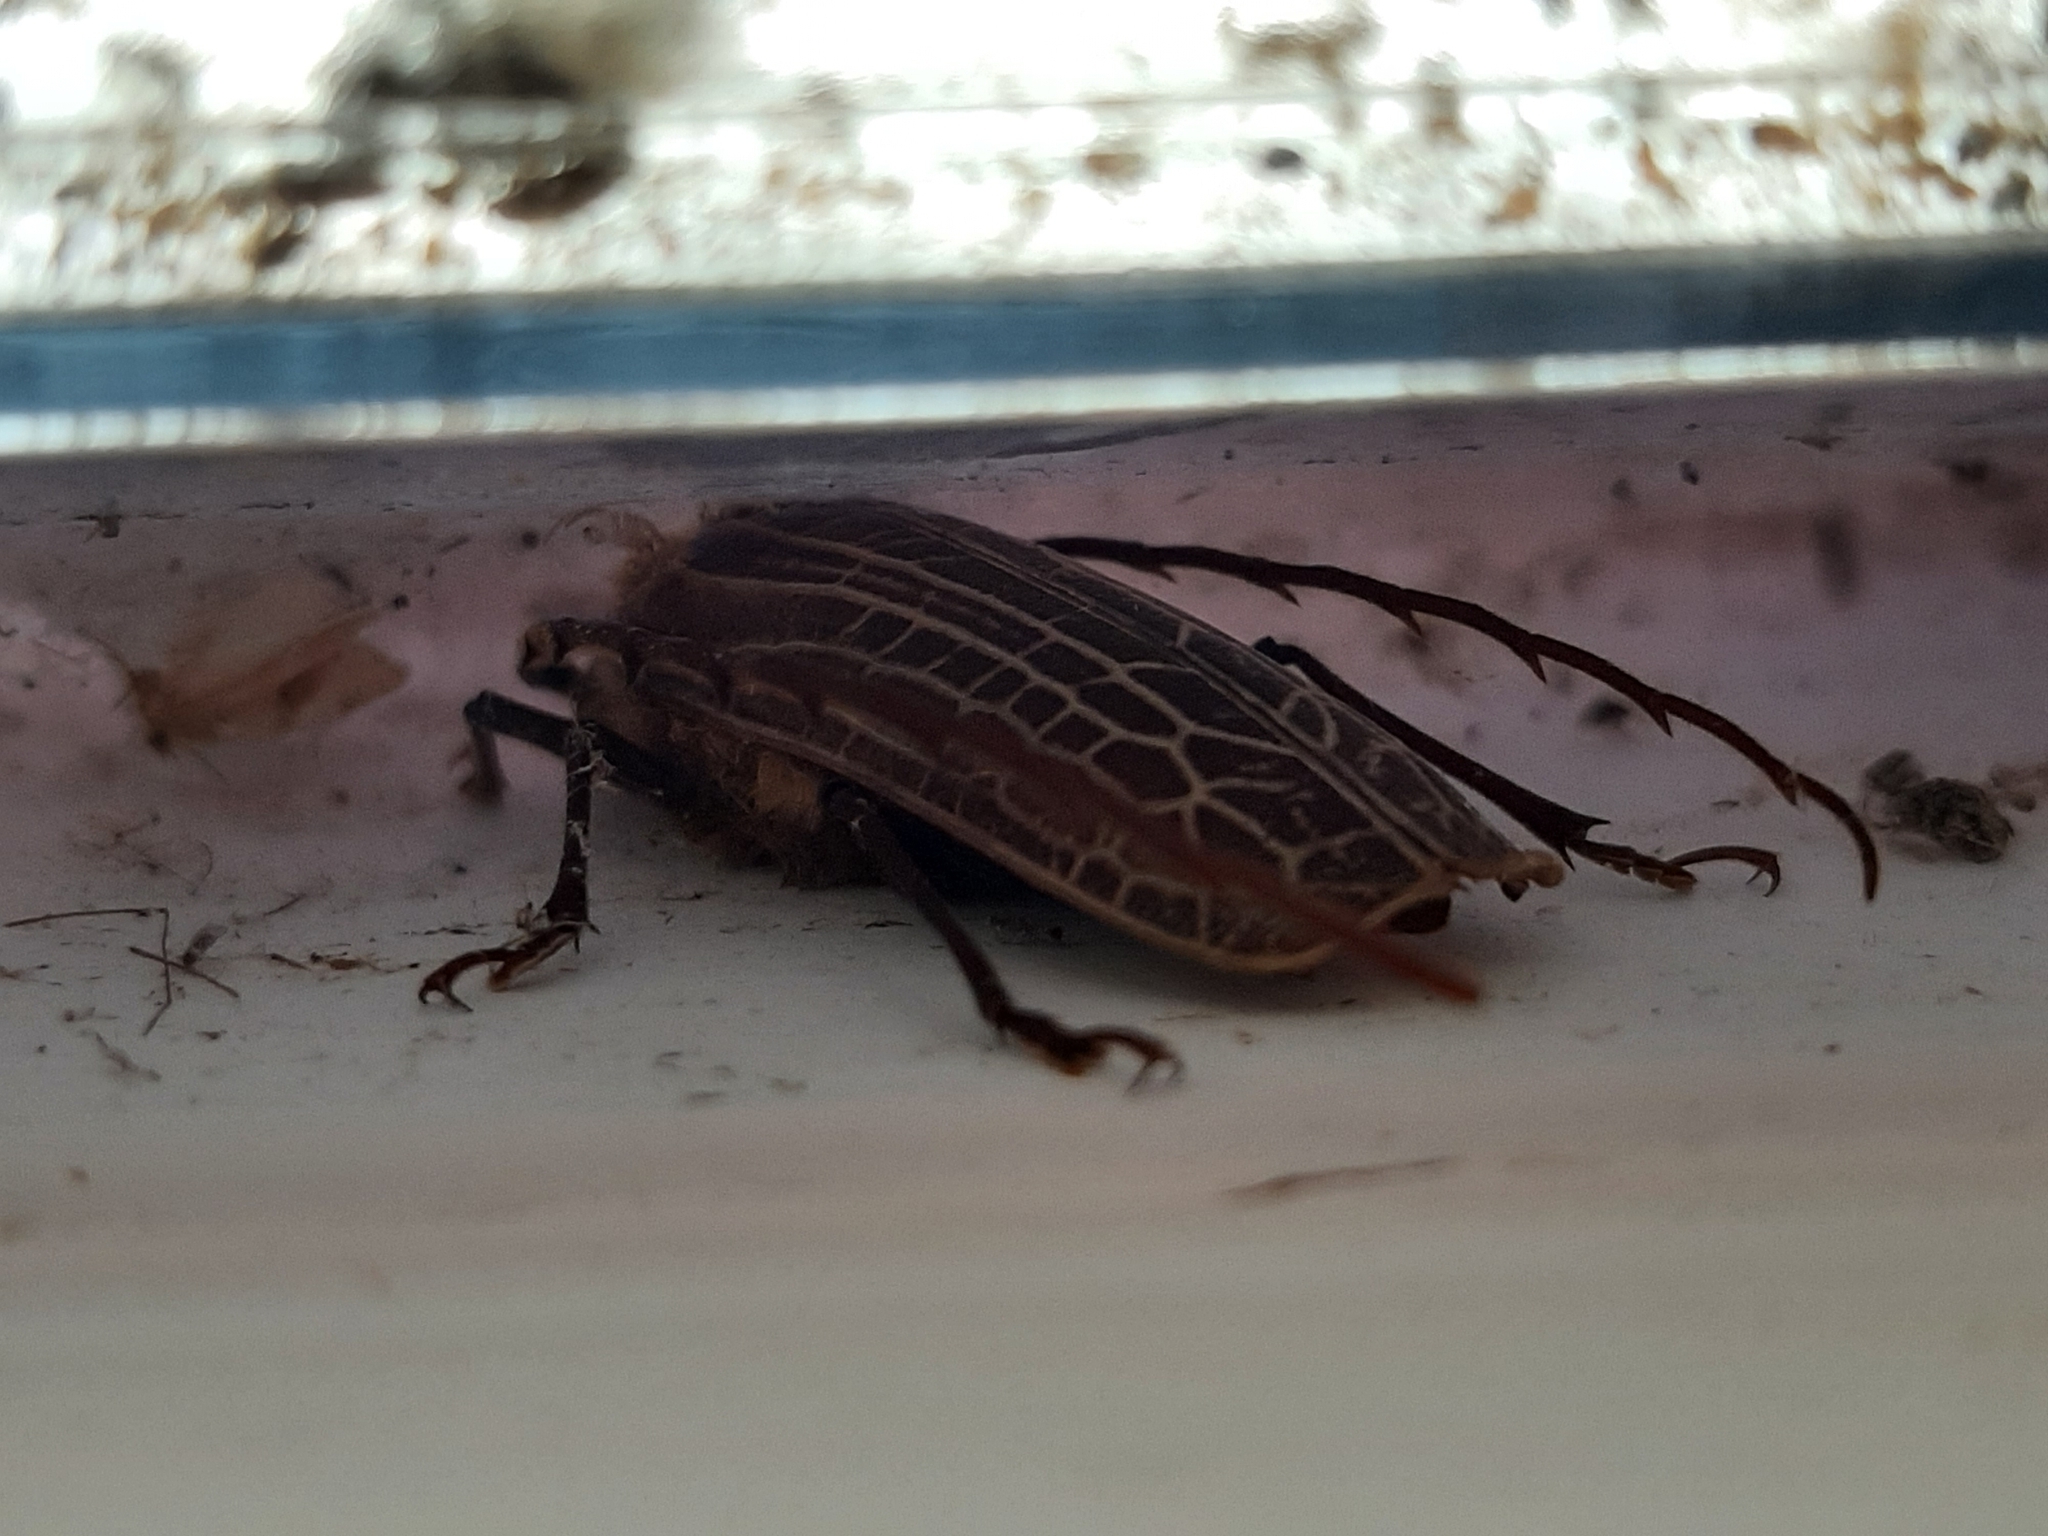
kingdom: Animalia
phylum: Arthropoda
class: Insecta
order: Coleoptera
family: Cerambycidae
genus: Prionoplus
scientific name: Prionoplus reticularis
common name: Huhu beetle
